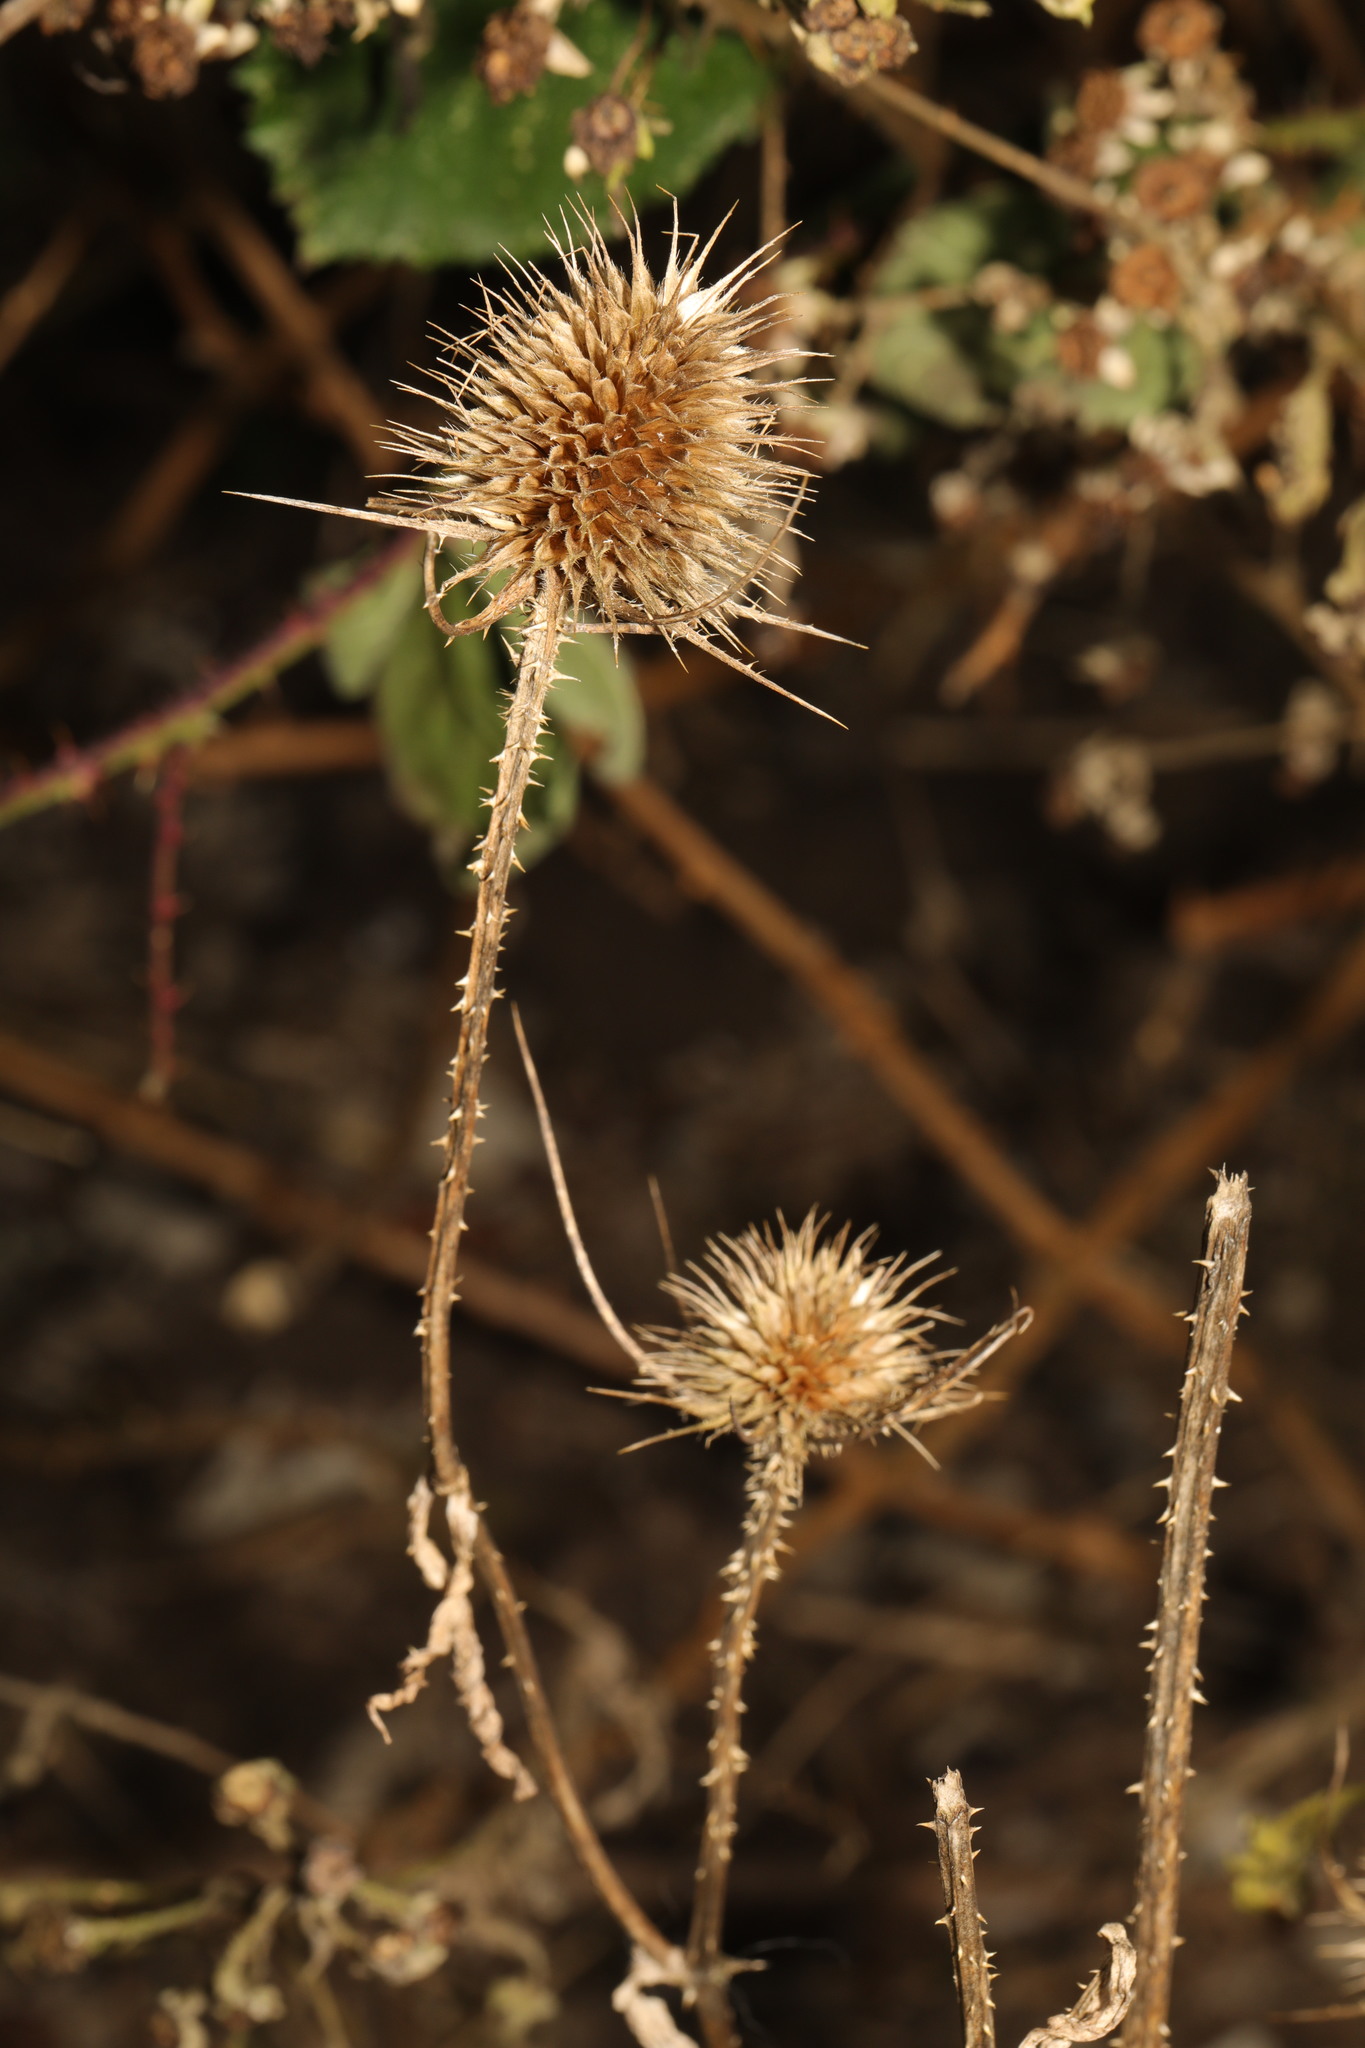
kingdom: Plantae
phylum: Tracheophyta
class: Magnoliopsida
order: Dipsacales
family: Caprifoliaceae
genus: Dipsacus
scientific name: Dipsacus fullonum
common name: Teasel
